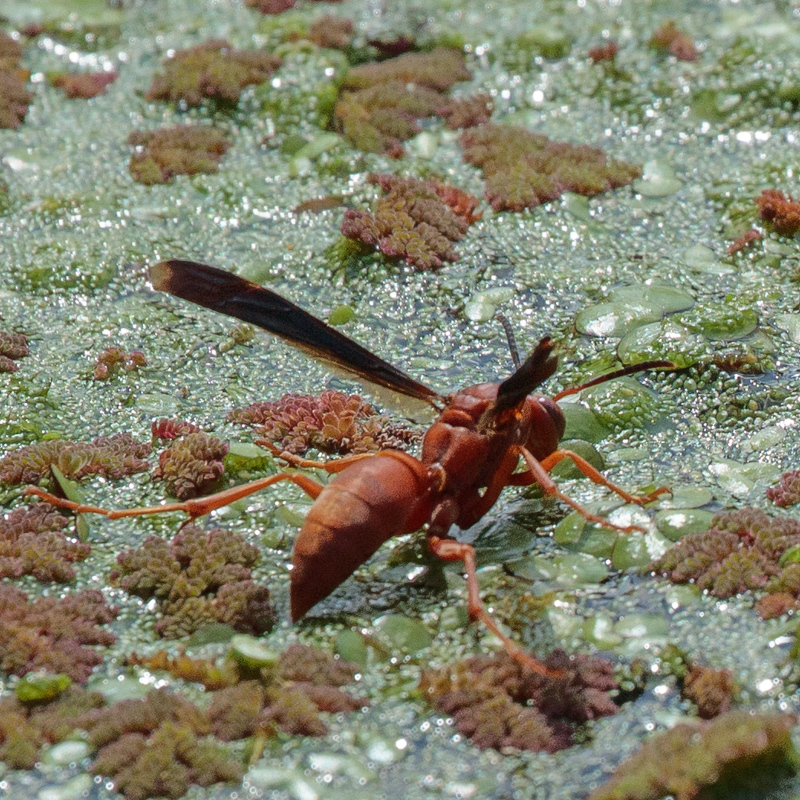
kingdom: Animalia
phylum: Arthropoda
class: Insecta
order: Hymenoptera
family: Vespidae
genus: Fuscopolistes
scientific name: Fuscopolistes
